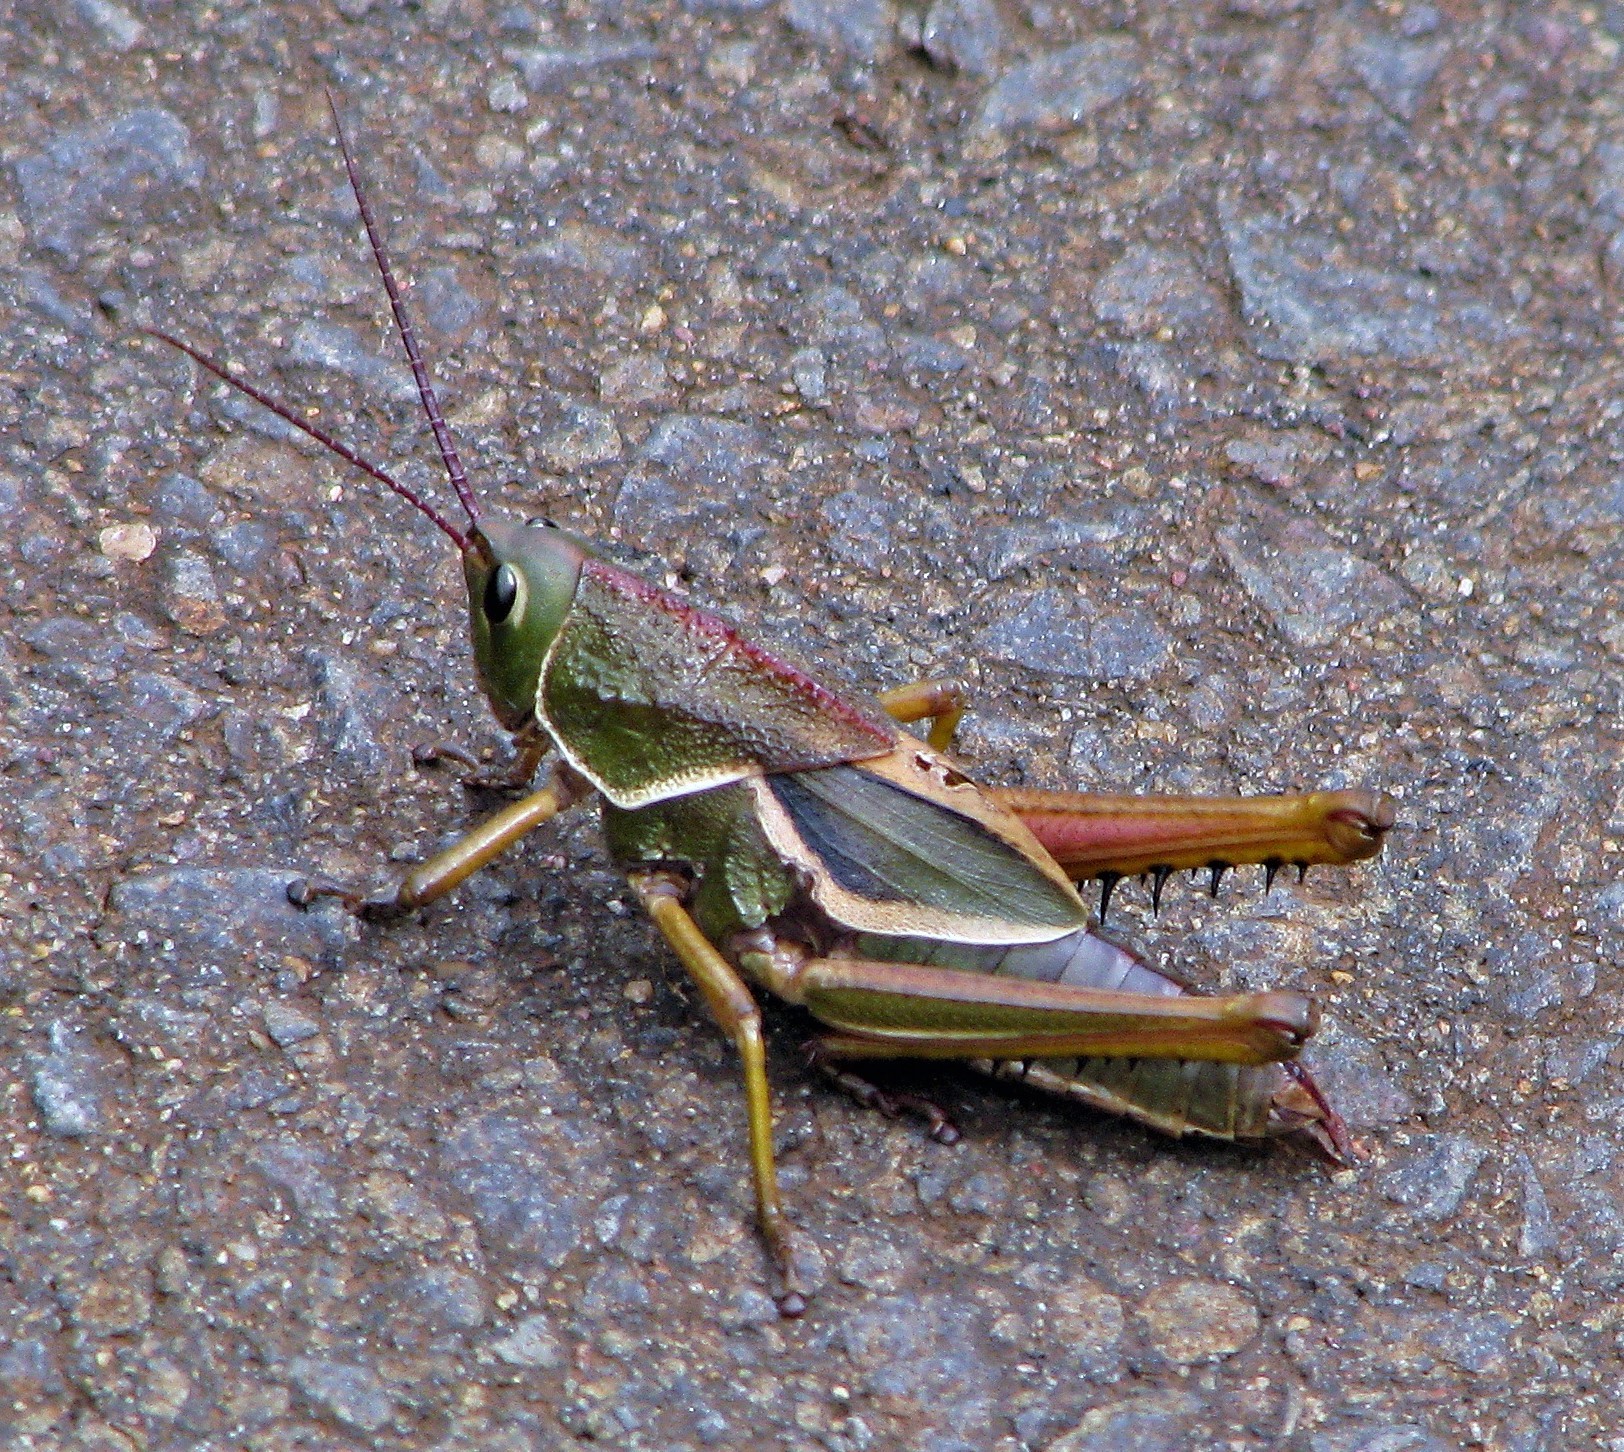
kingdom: Animalia
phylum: Arthropoda
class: Insecta
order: Orthoptera
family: Romaleidae
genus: Staleochlora
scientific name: Staleochlora arcuata
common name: Paraná purple-backed grasshopper
